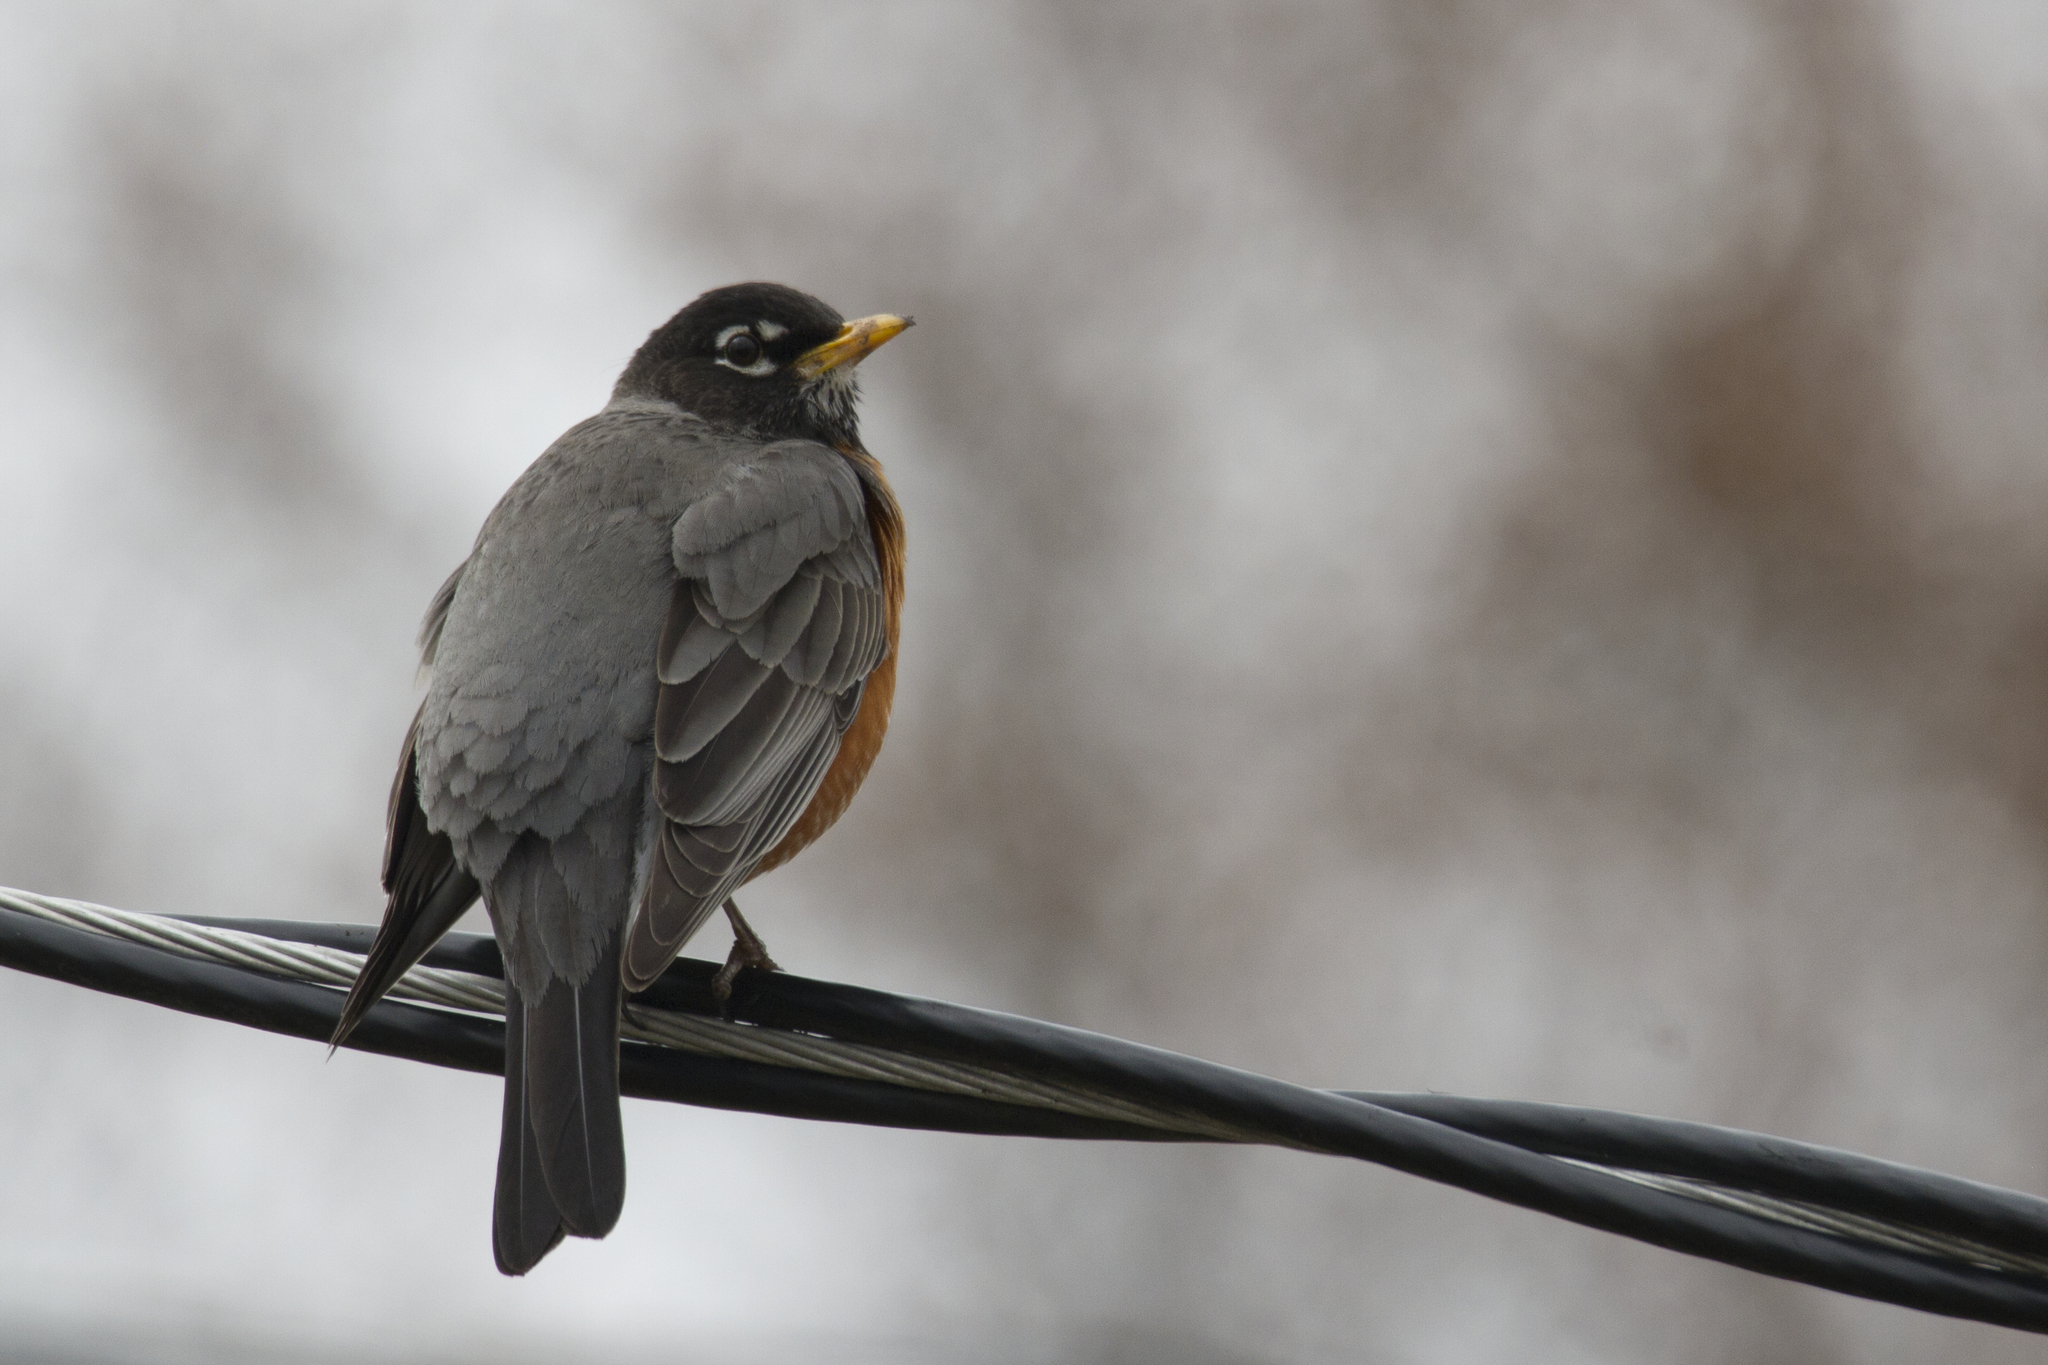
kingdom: Animalia
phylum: Chordata
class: Aves
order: Passeriformes
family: Turdidae
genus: Turdus
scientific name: Turdus migratorius
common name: American robin
